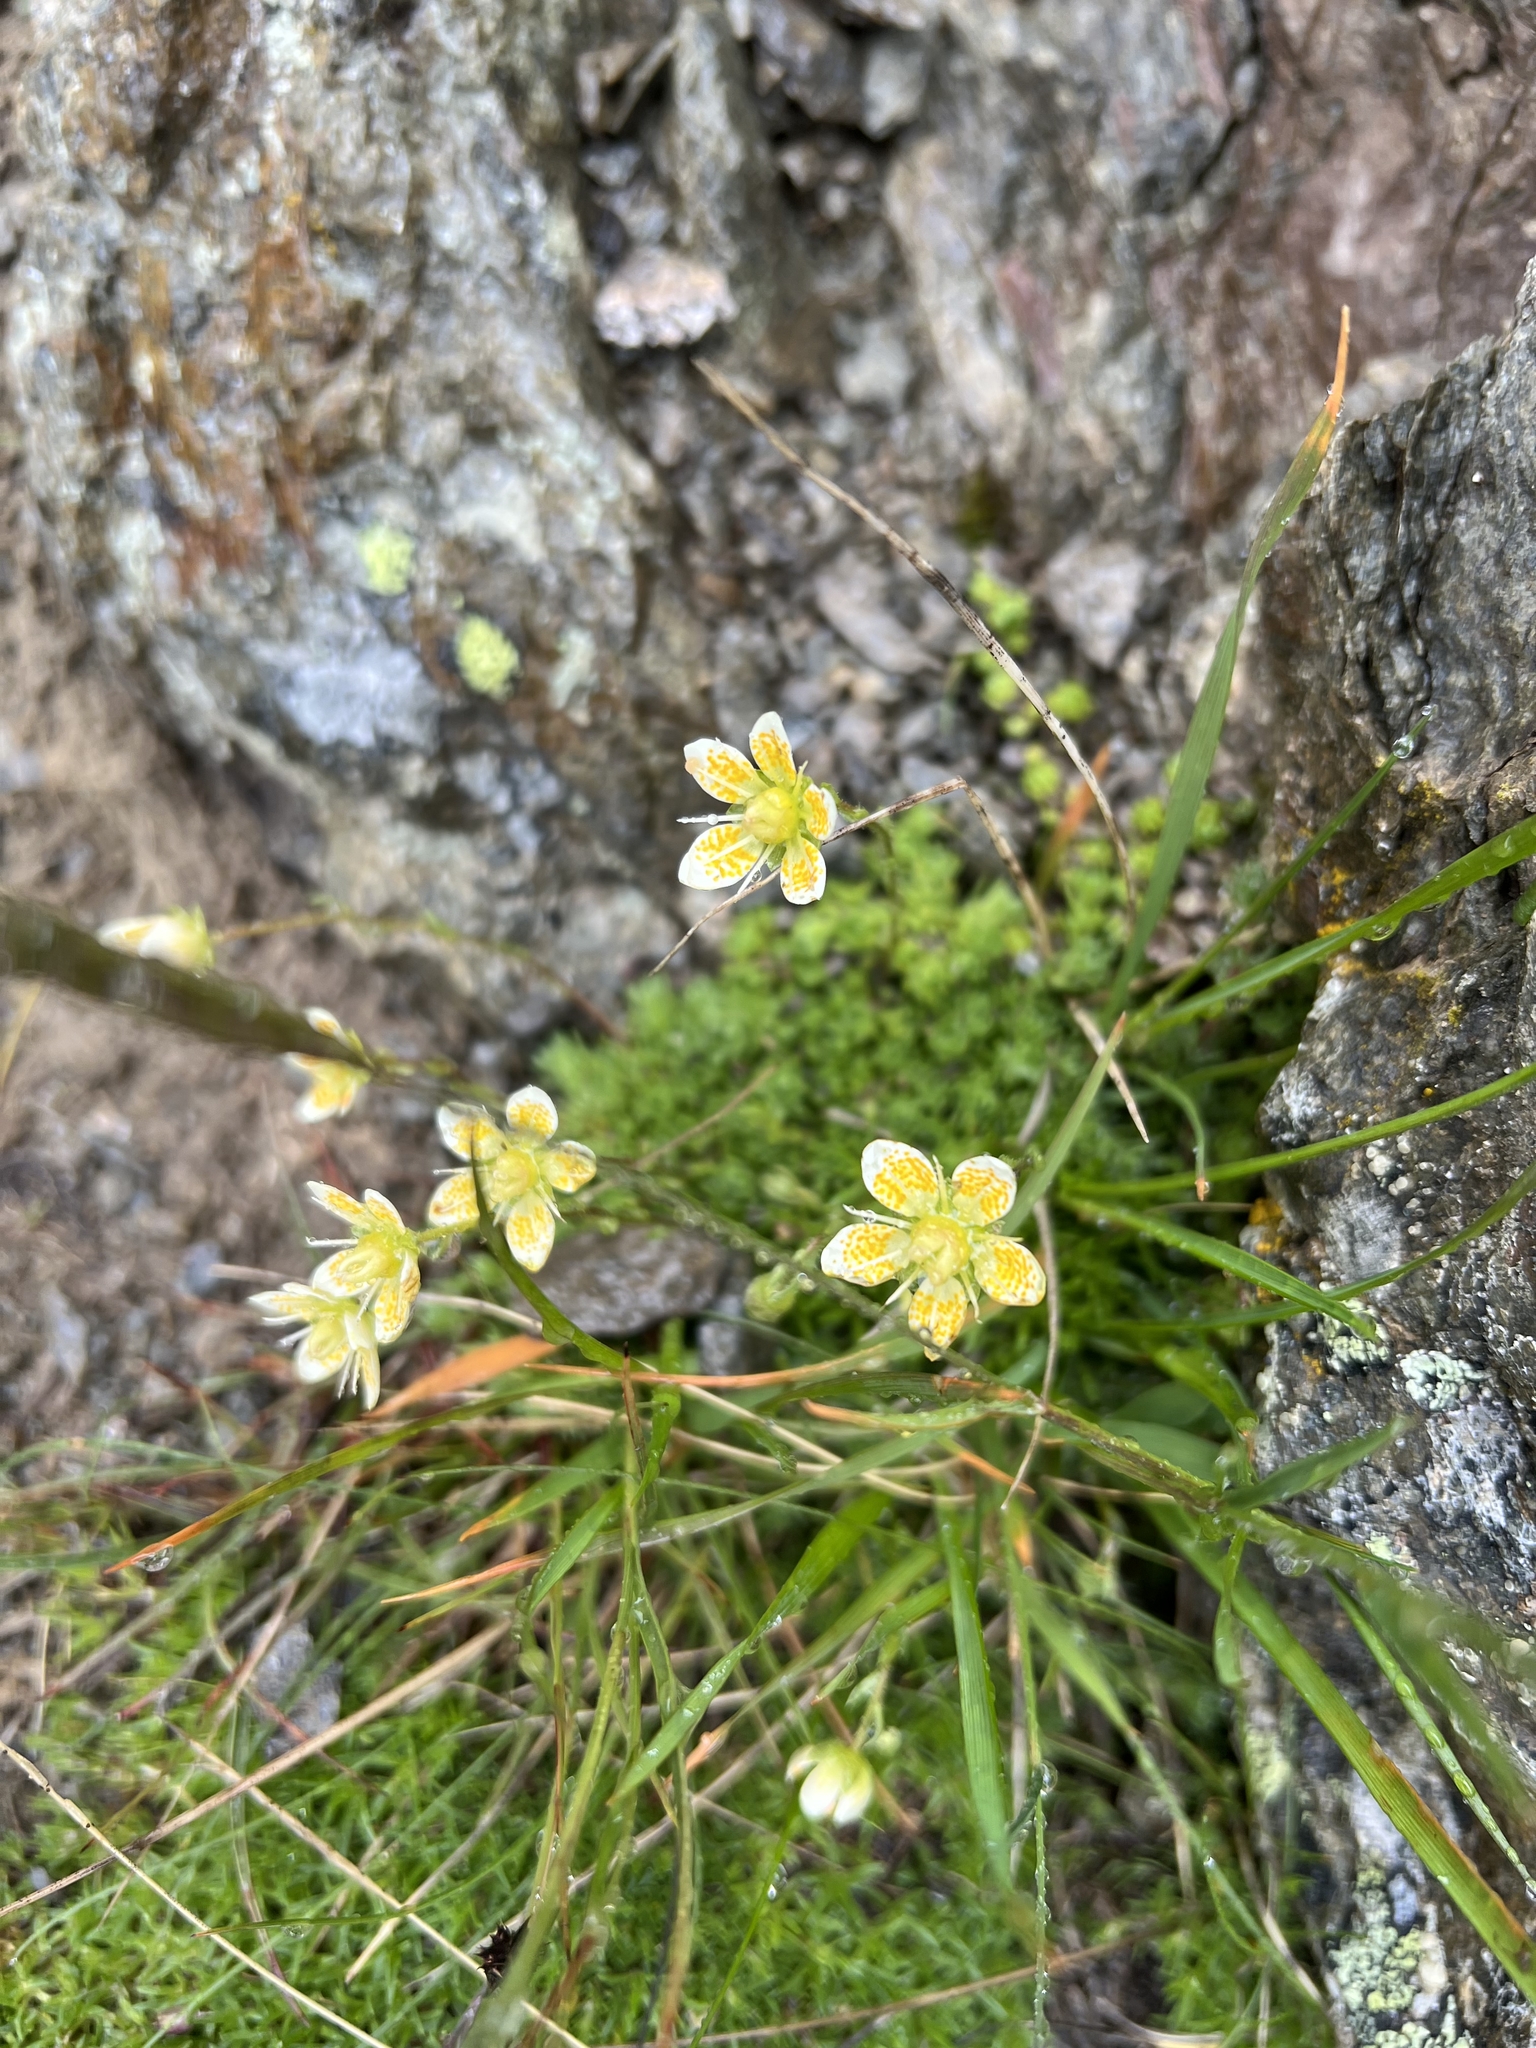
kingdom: Plantae
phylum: Tracheophyta
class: Magnoliopsida
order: Saxifragales
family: Saxifragaceae
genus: Saxifraga
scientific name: Saxifraga bryoides
